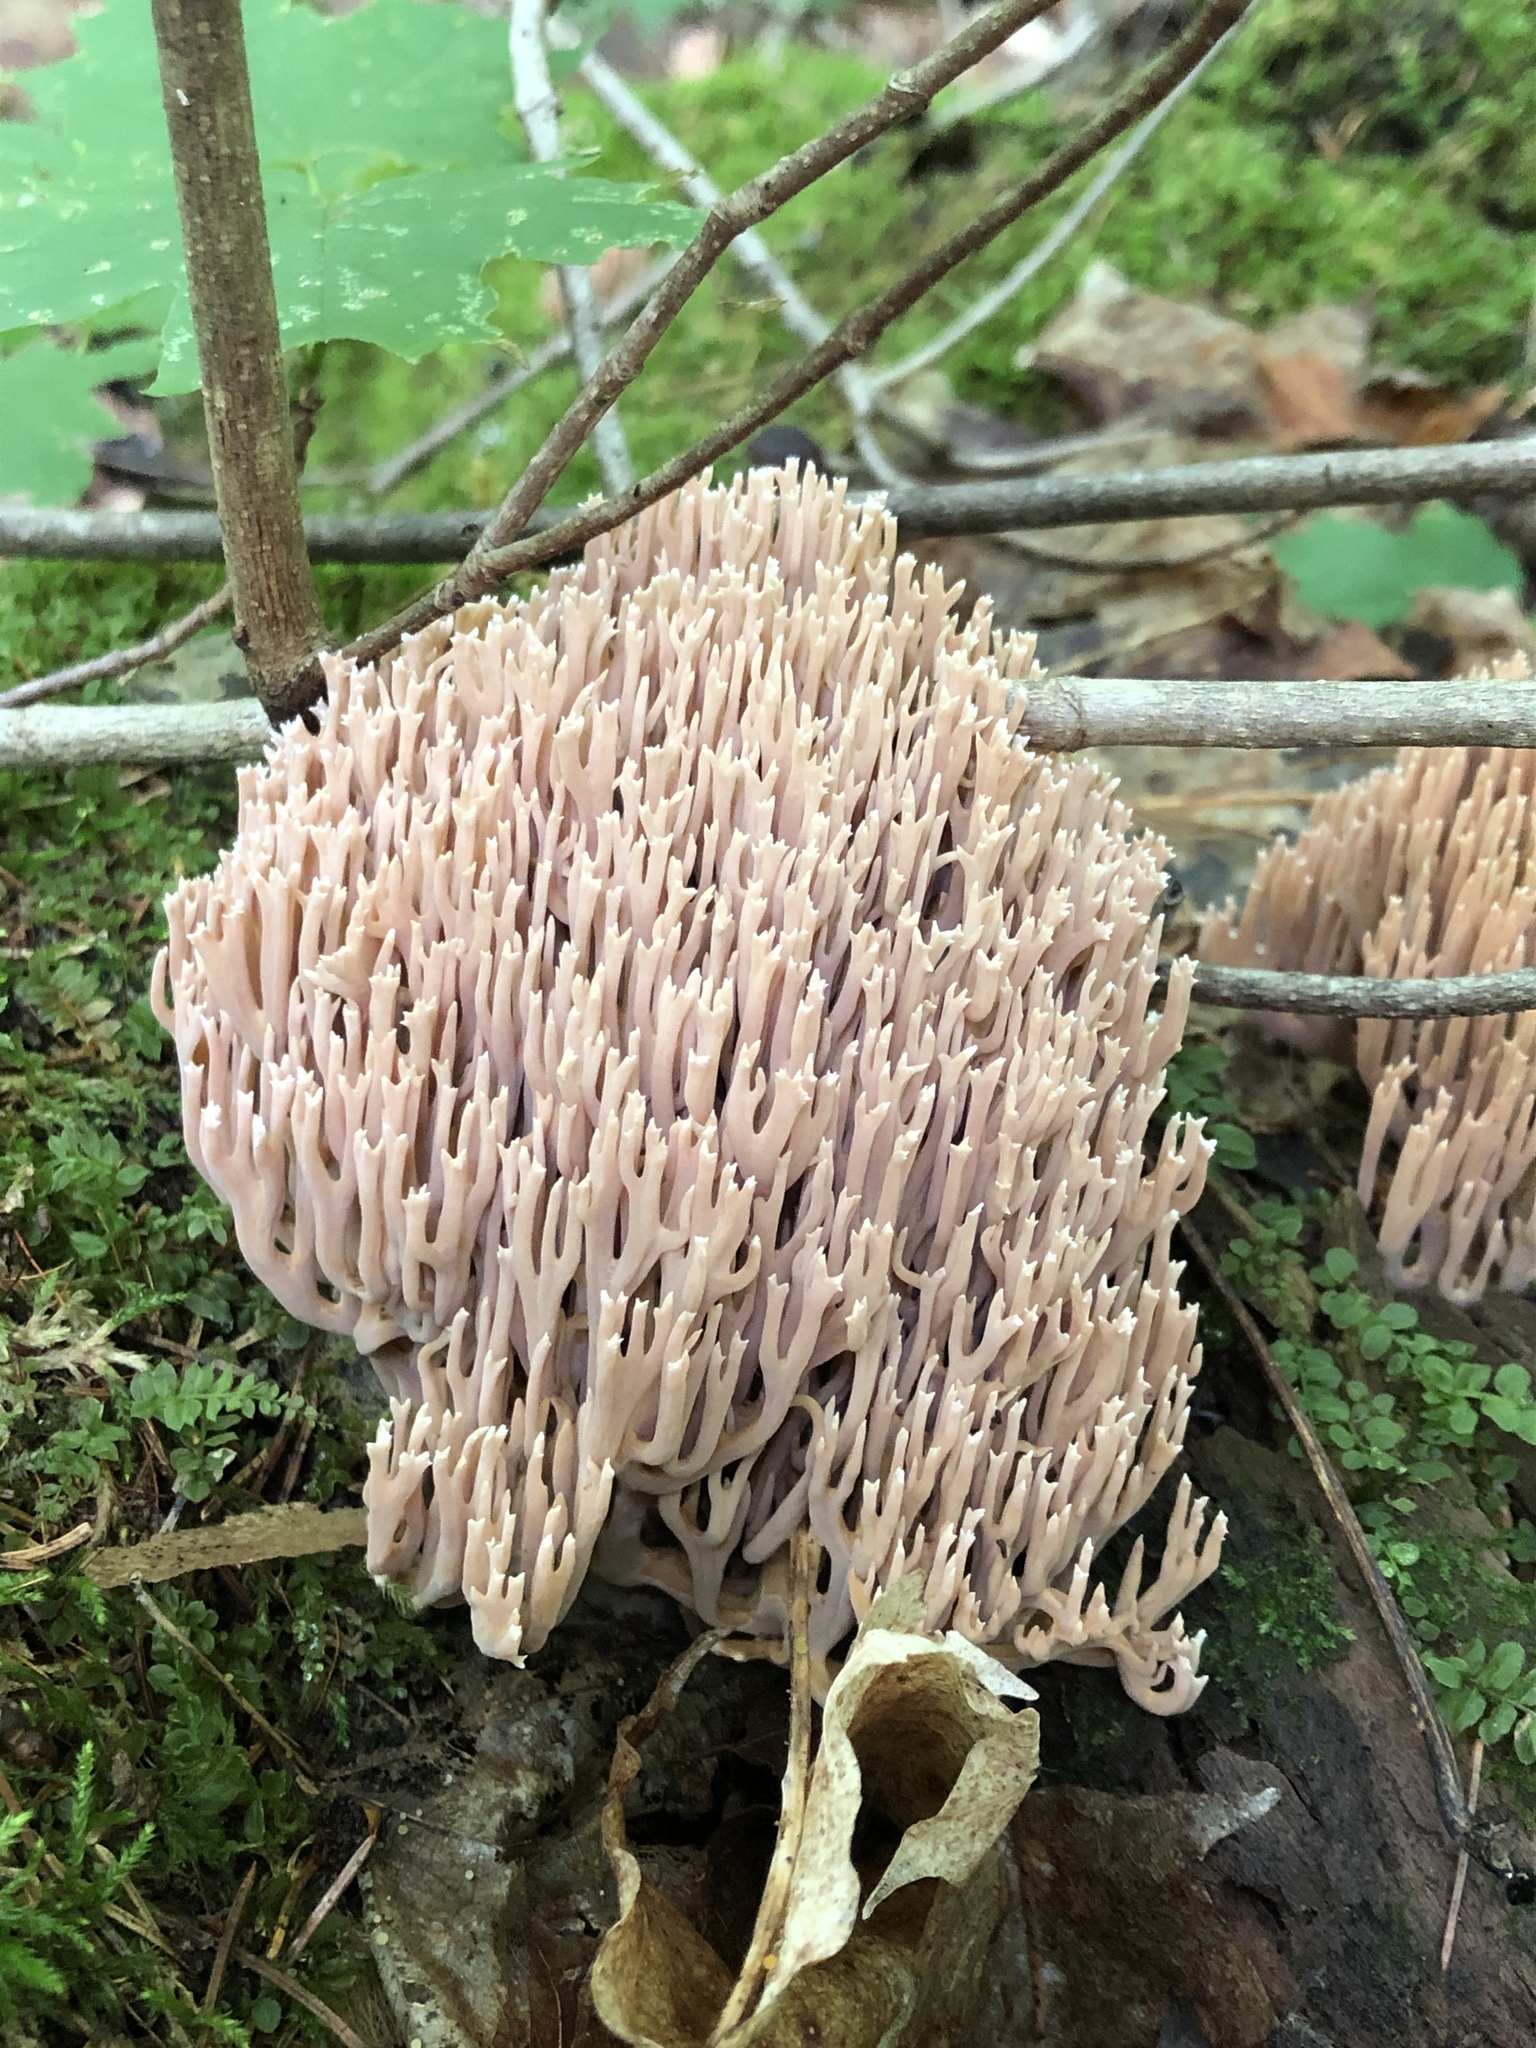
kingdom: Fungi
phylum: Basidiomycota
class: Agaricomycetes
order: Gomphales
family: Gomphaceae
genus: Ramaria
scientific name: Ramaria stricta
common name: Upright coral
